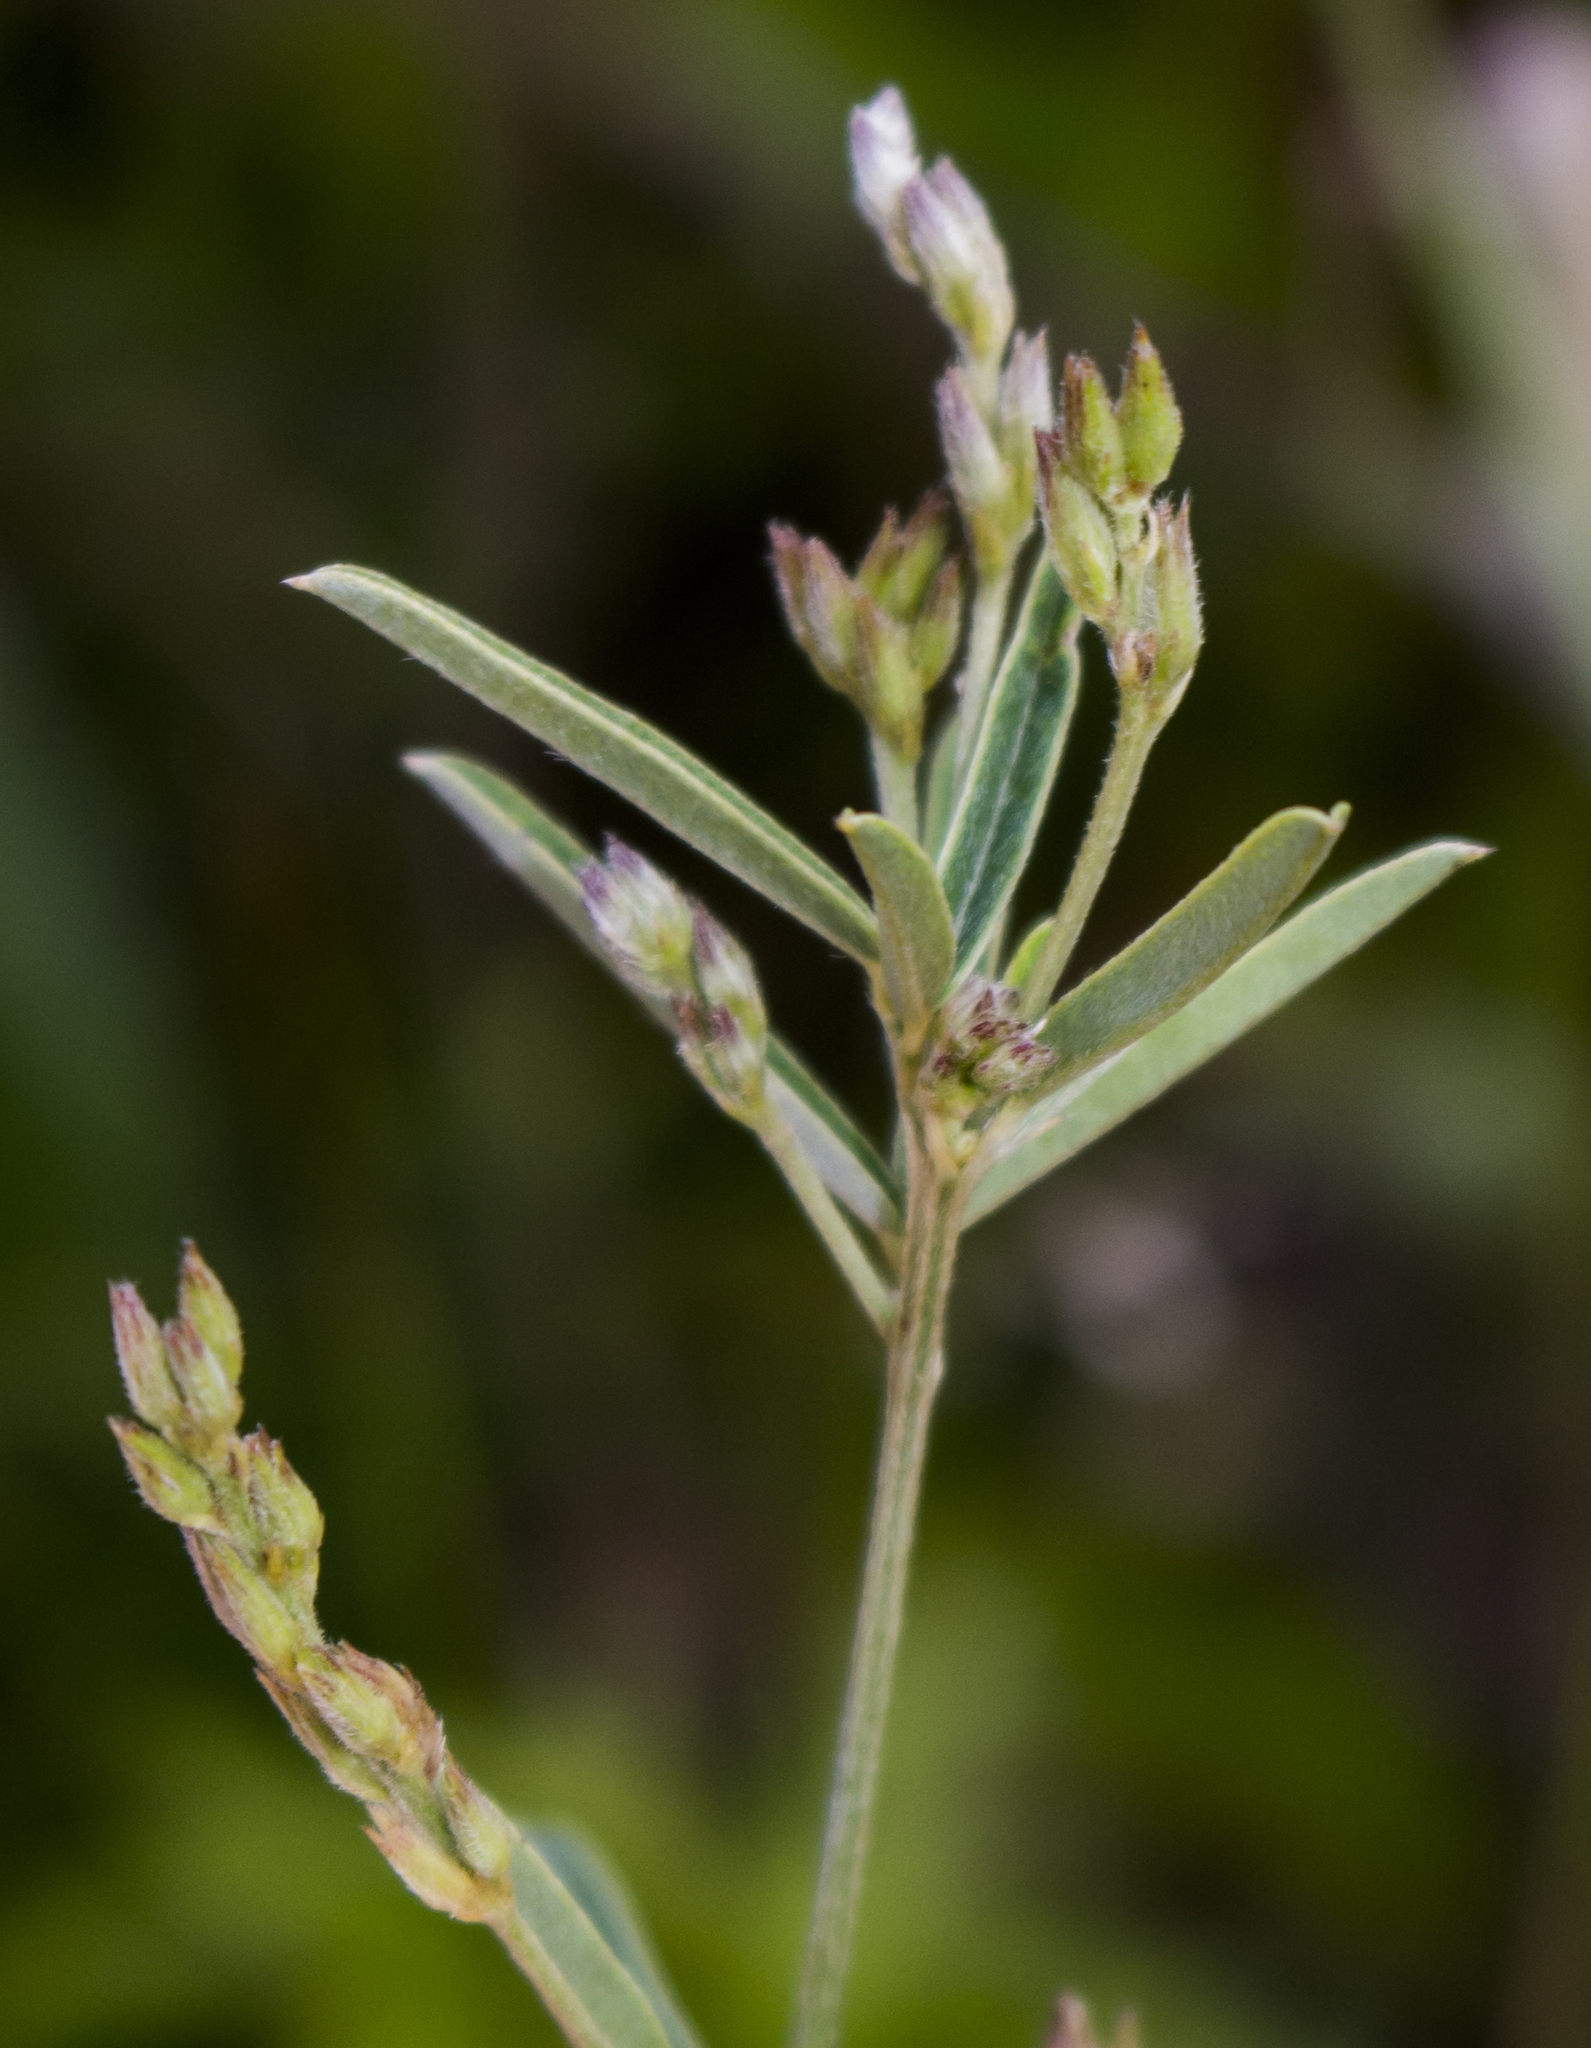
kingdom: Plantae
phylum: Tracheophyta
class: Magnoliopsida
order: Fabales
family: Fabaceae
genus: Lespedeza
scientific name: Lespedeza leptostachya
